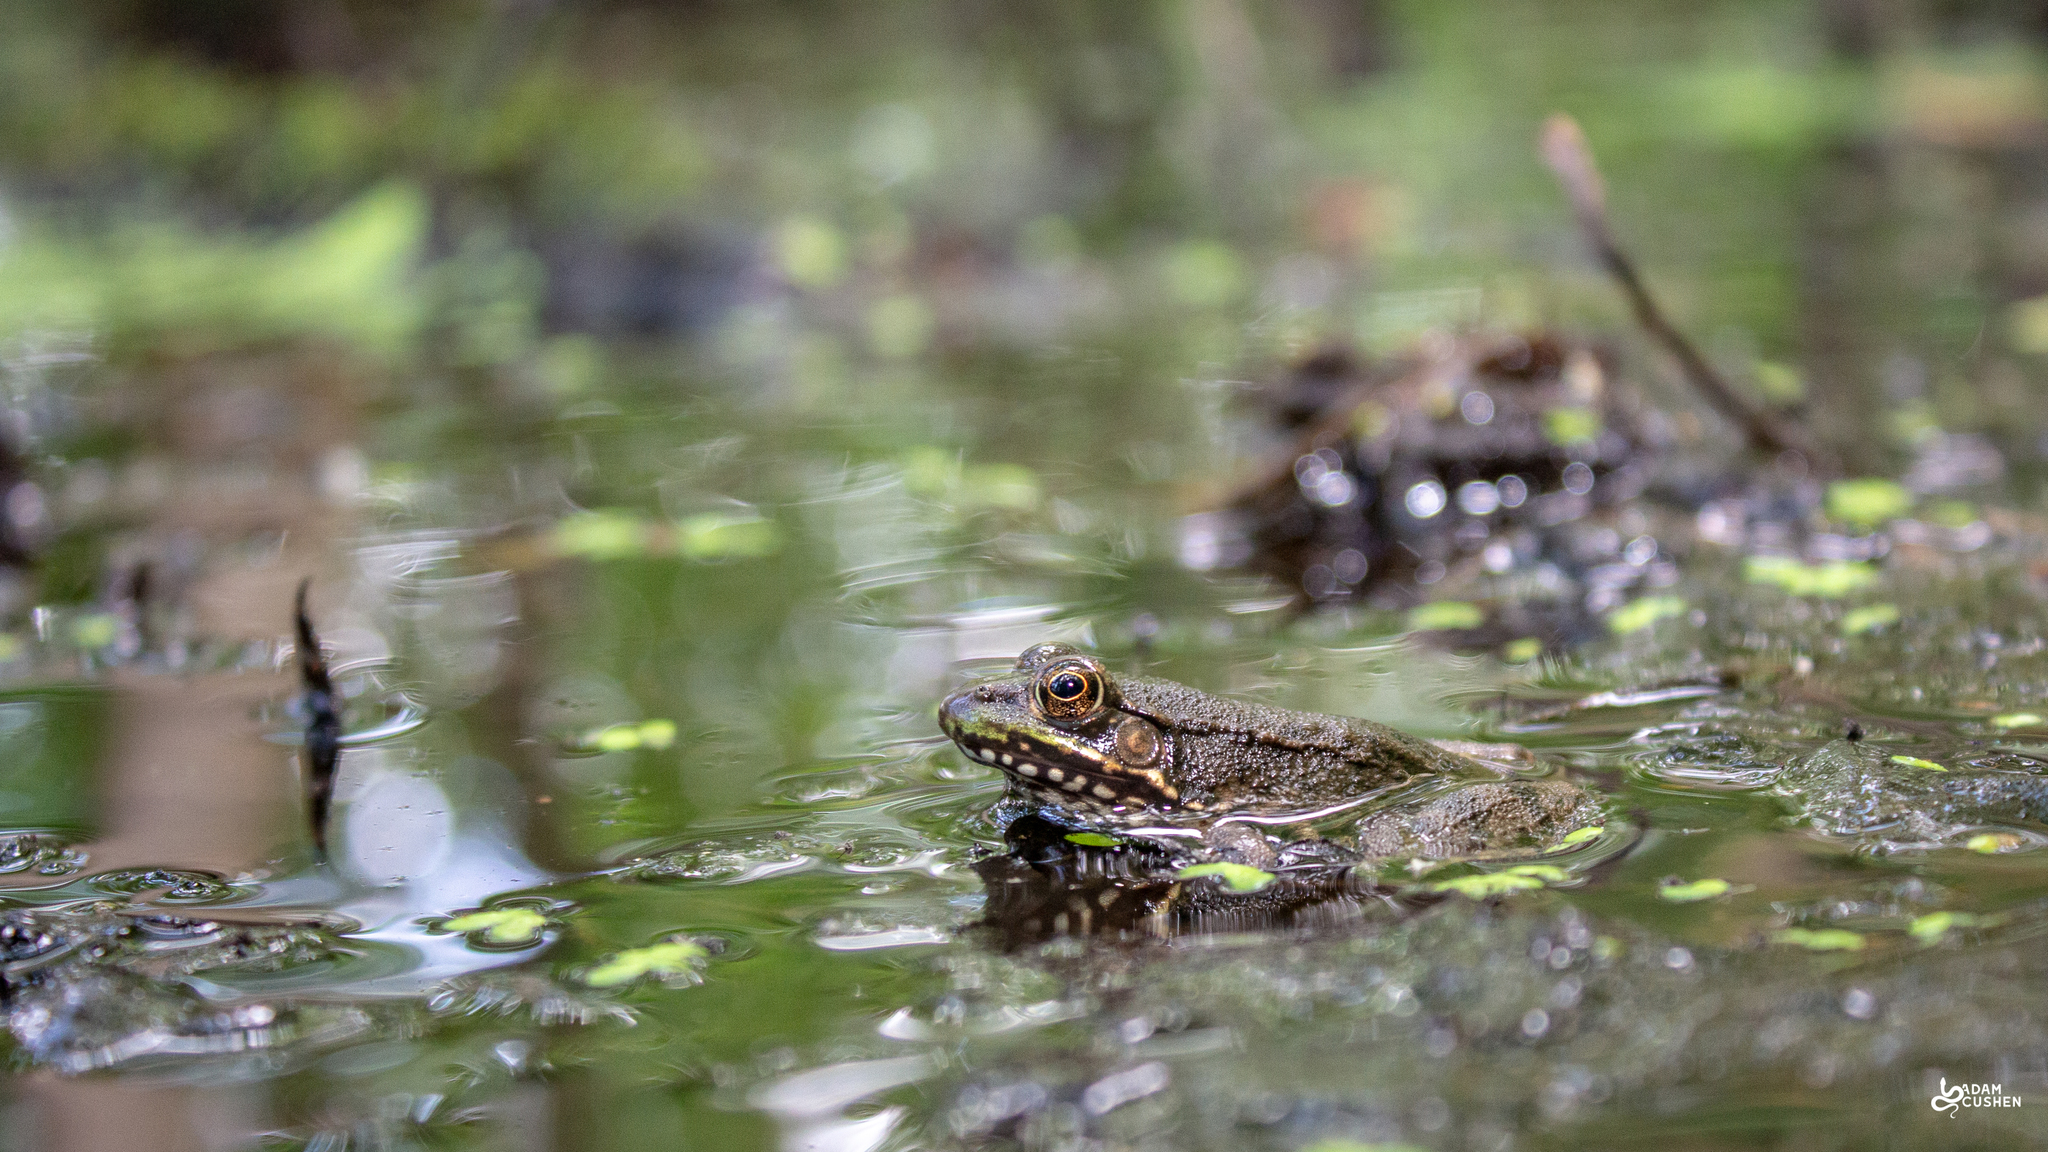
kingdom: Animalia
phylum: Chordata
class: Amphibia
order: Anura
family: Ranidae
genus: Lithobates
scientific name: Lithobates clamitans
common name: Green frog
